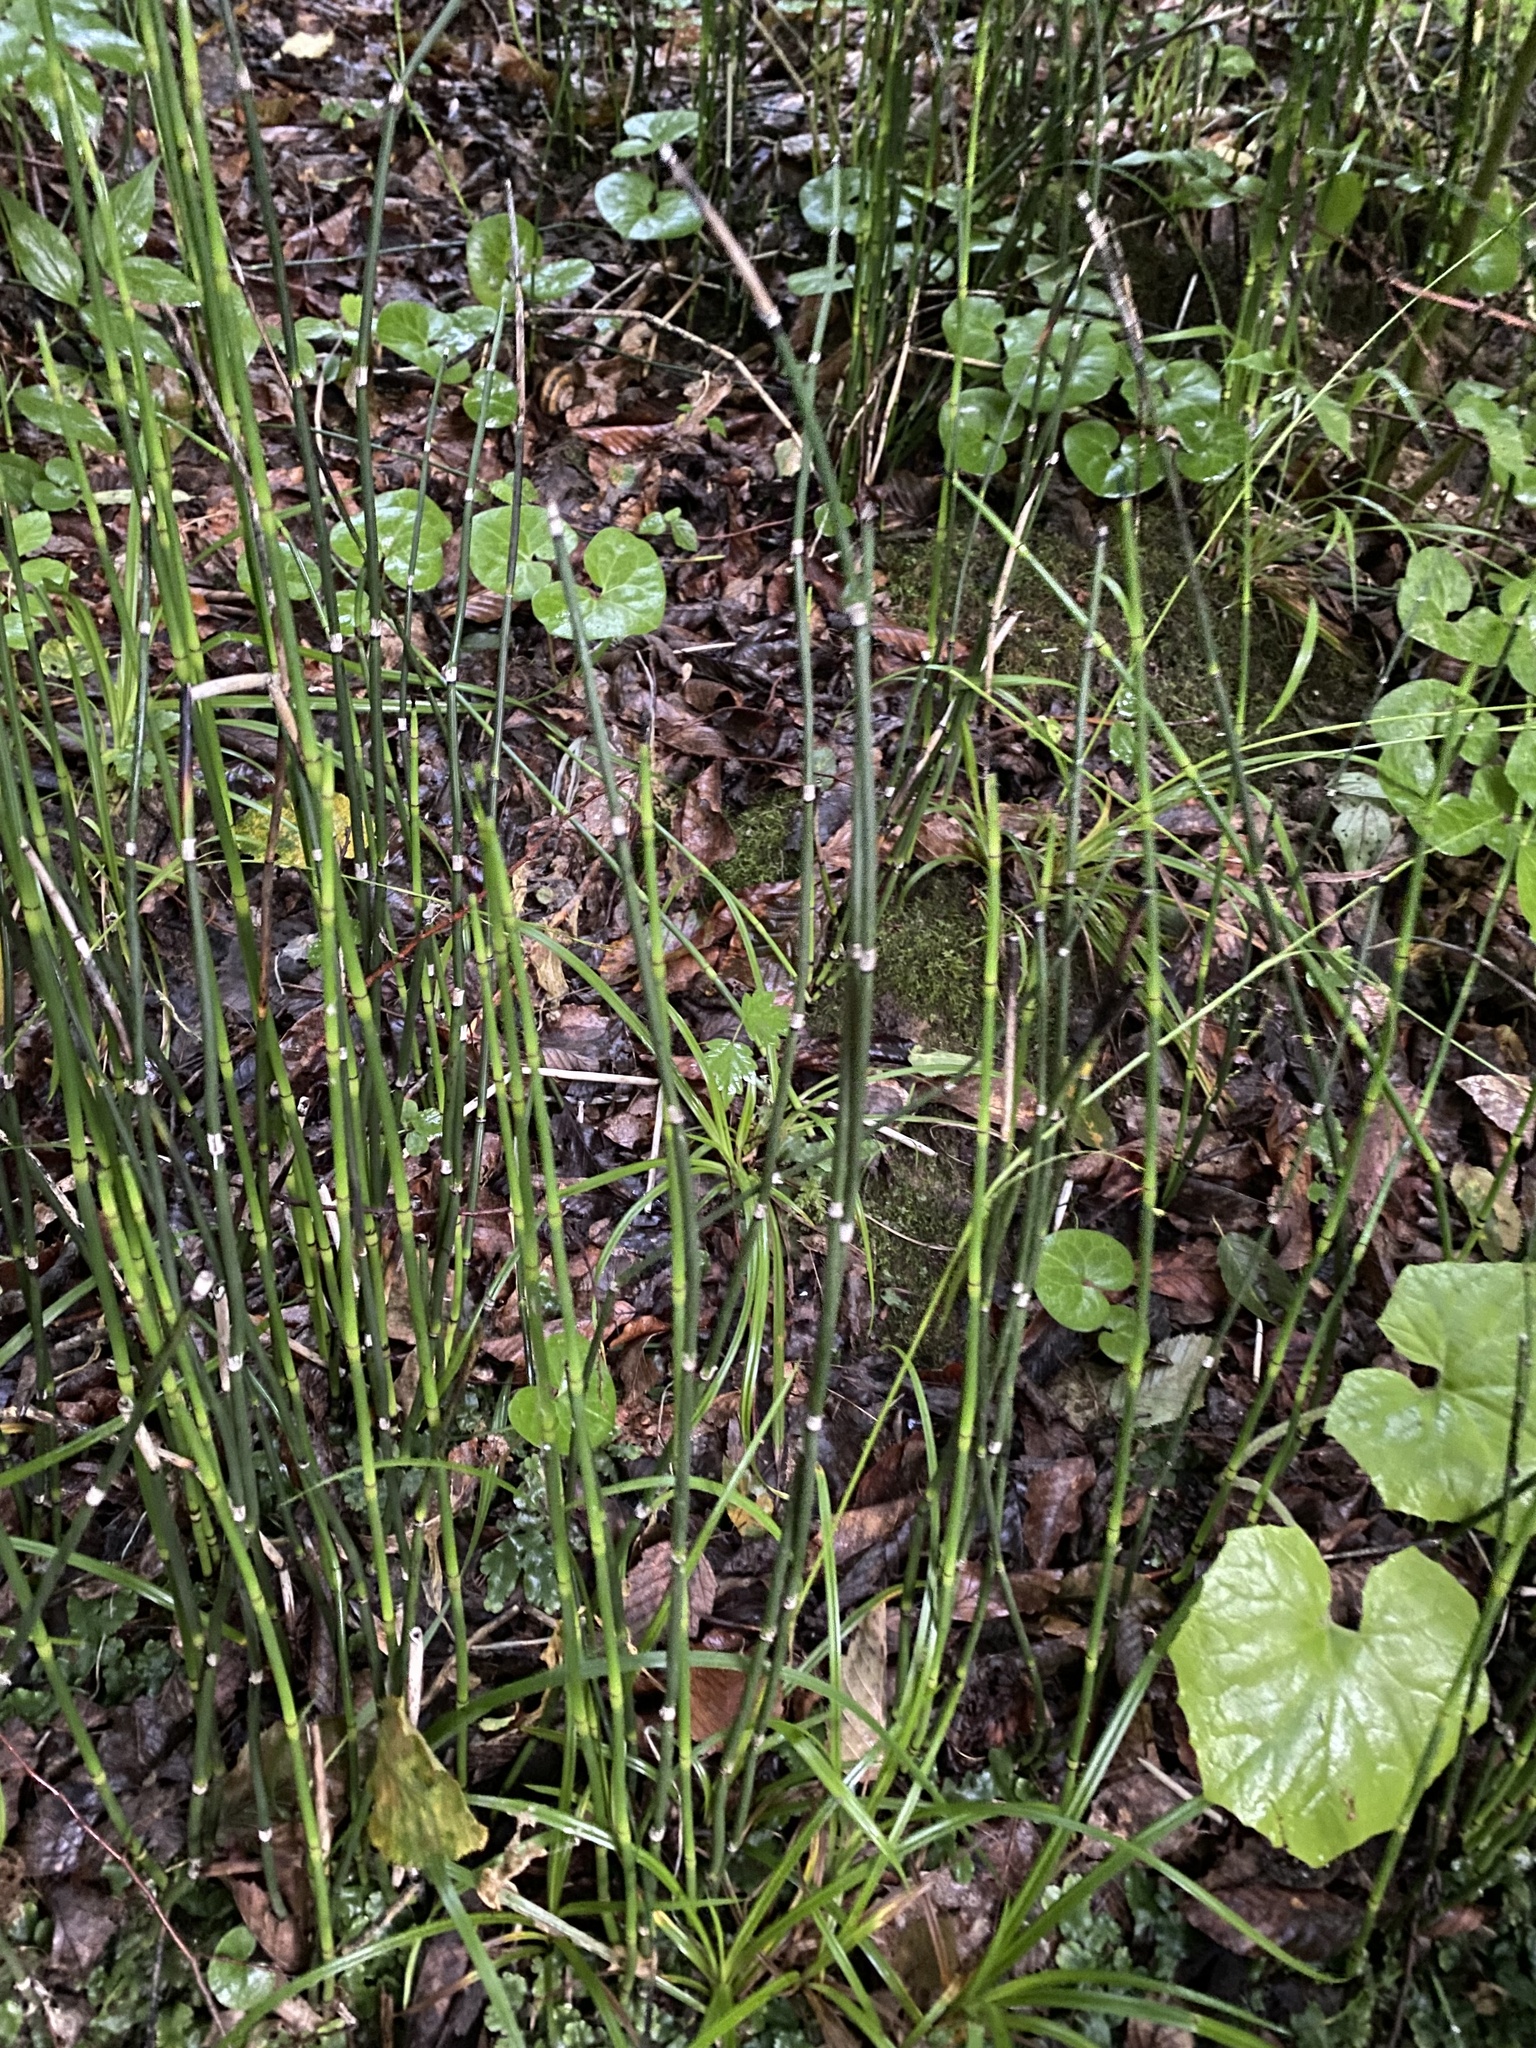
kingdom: Plantae
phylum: Tracheophyta
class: Polypodiopsida
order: Equisetales
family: Equisetaceae
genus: Equisetum
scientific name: Equisetum hyemale
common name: Rough horsetail
